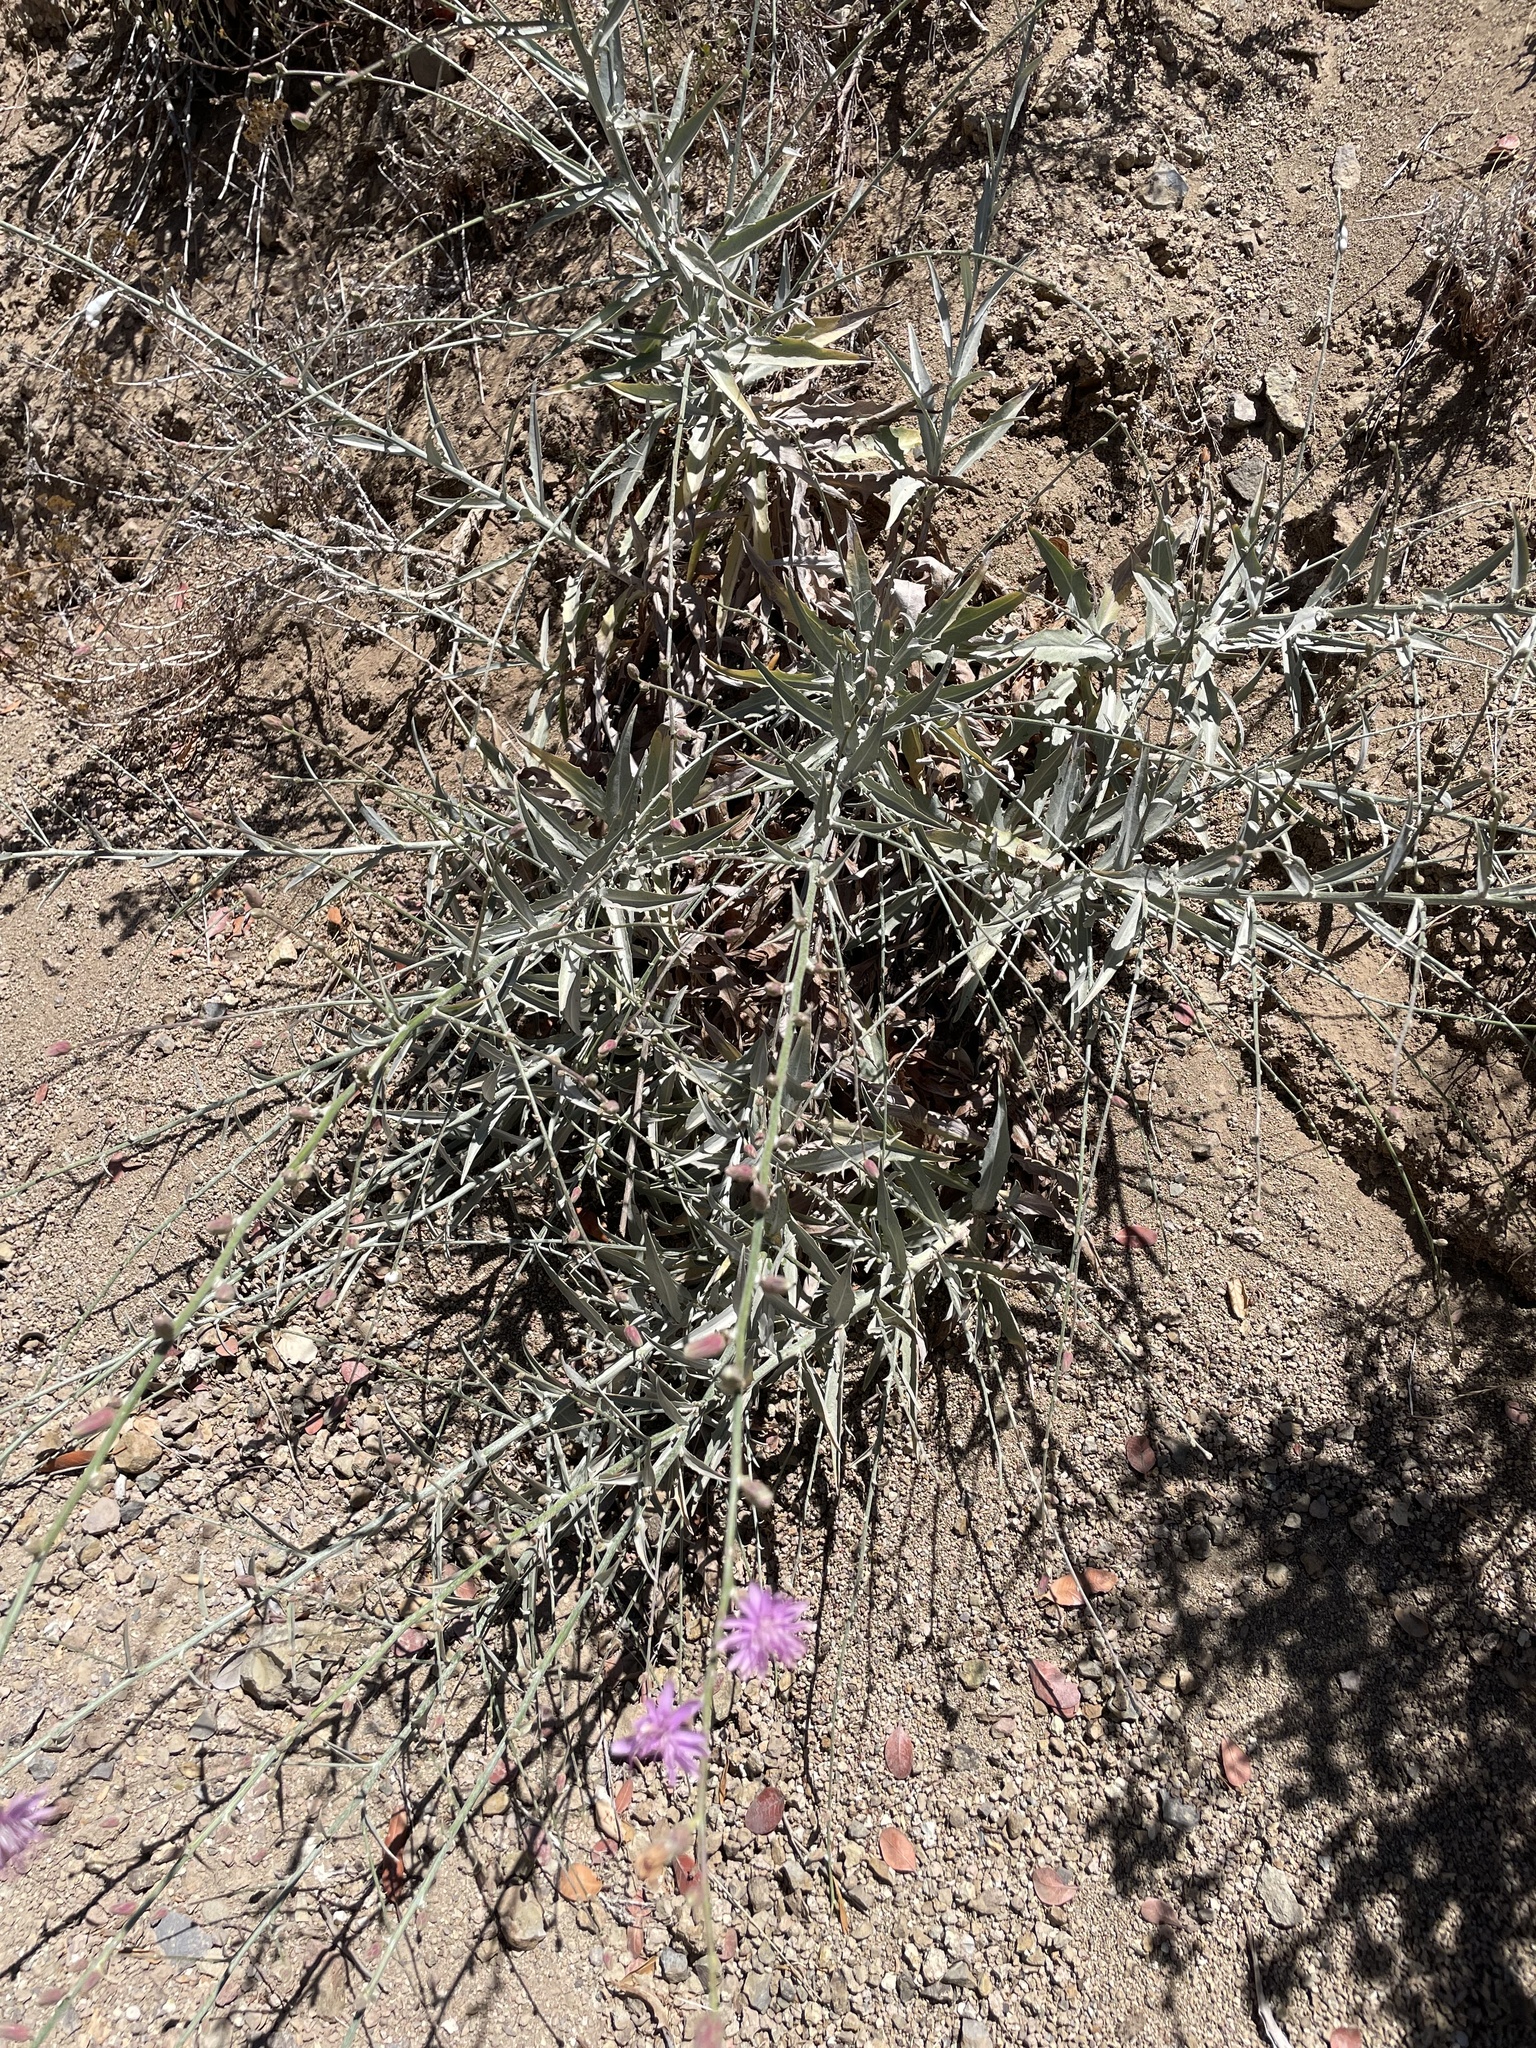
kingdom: Plantae
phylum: Tracheophyta
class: Magnoliopsida
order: Asterales
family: Asteraceae
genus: Stephanomeria
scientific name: Stephanomeria cichoriacea
